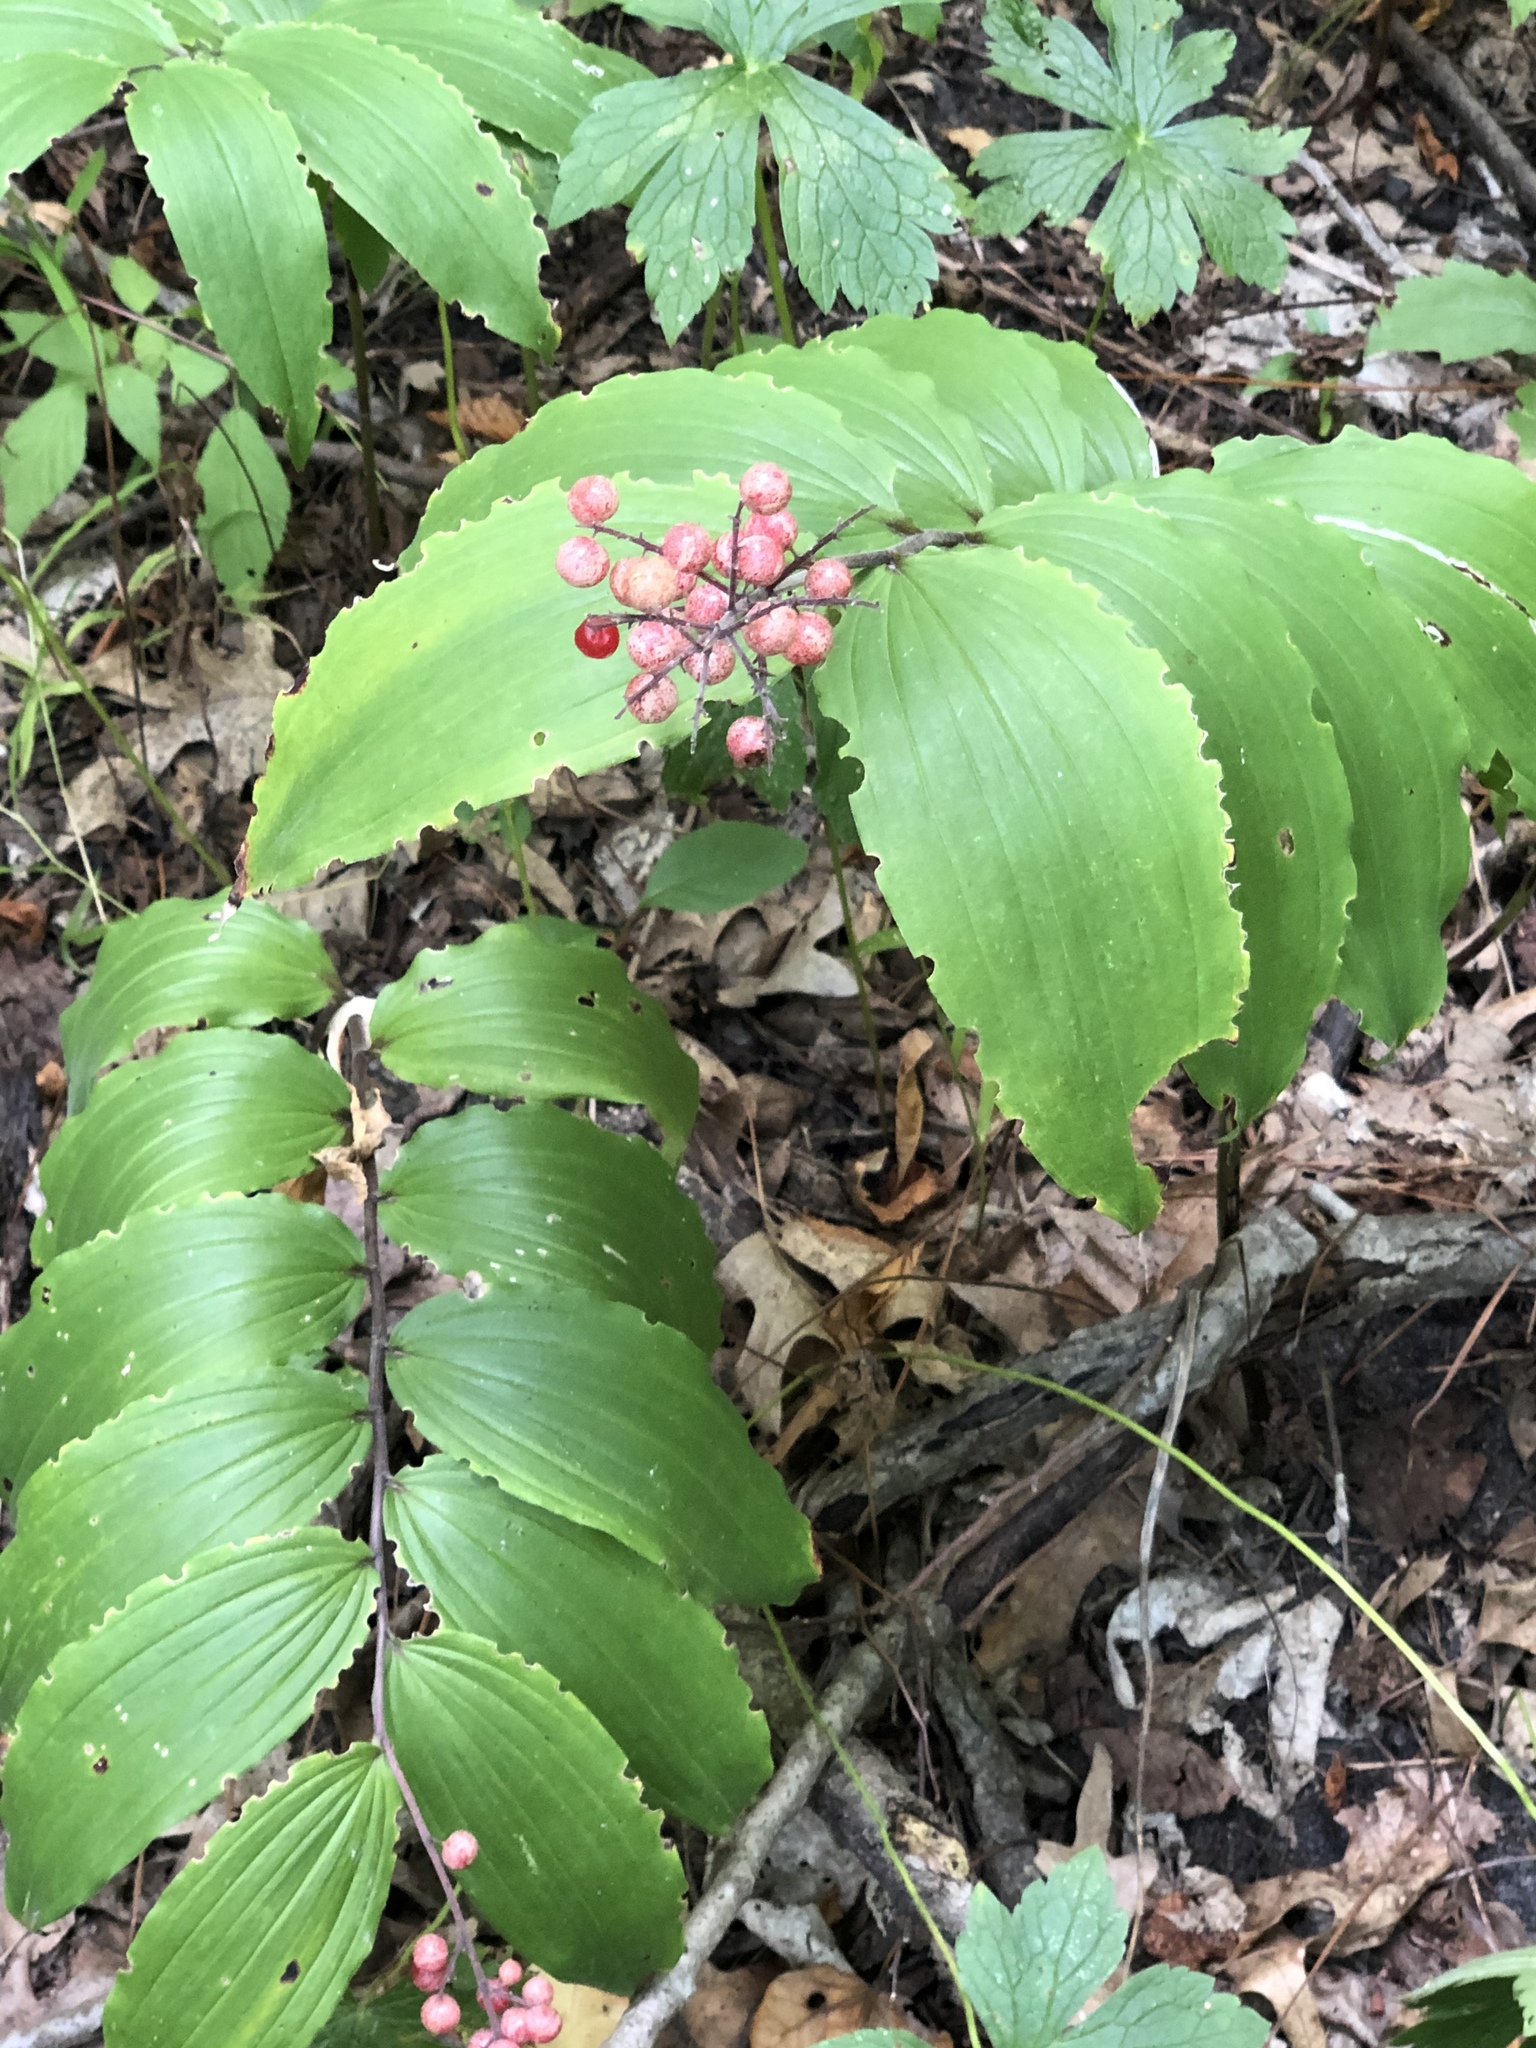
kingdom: Plantae
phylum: Tracheophyta
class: Liliopsida
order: Asparagales
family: Asparagaceae
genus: Maianthemum
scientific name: Maianthemum racemosum
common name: False spikenard
